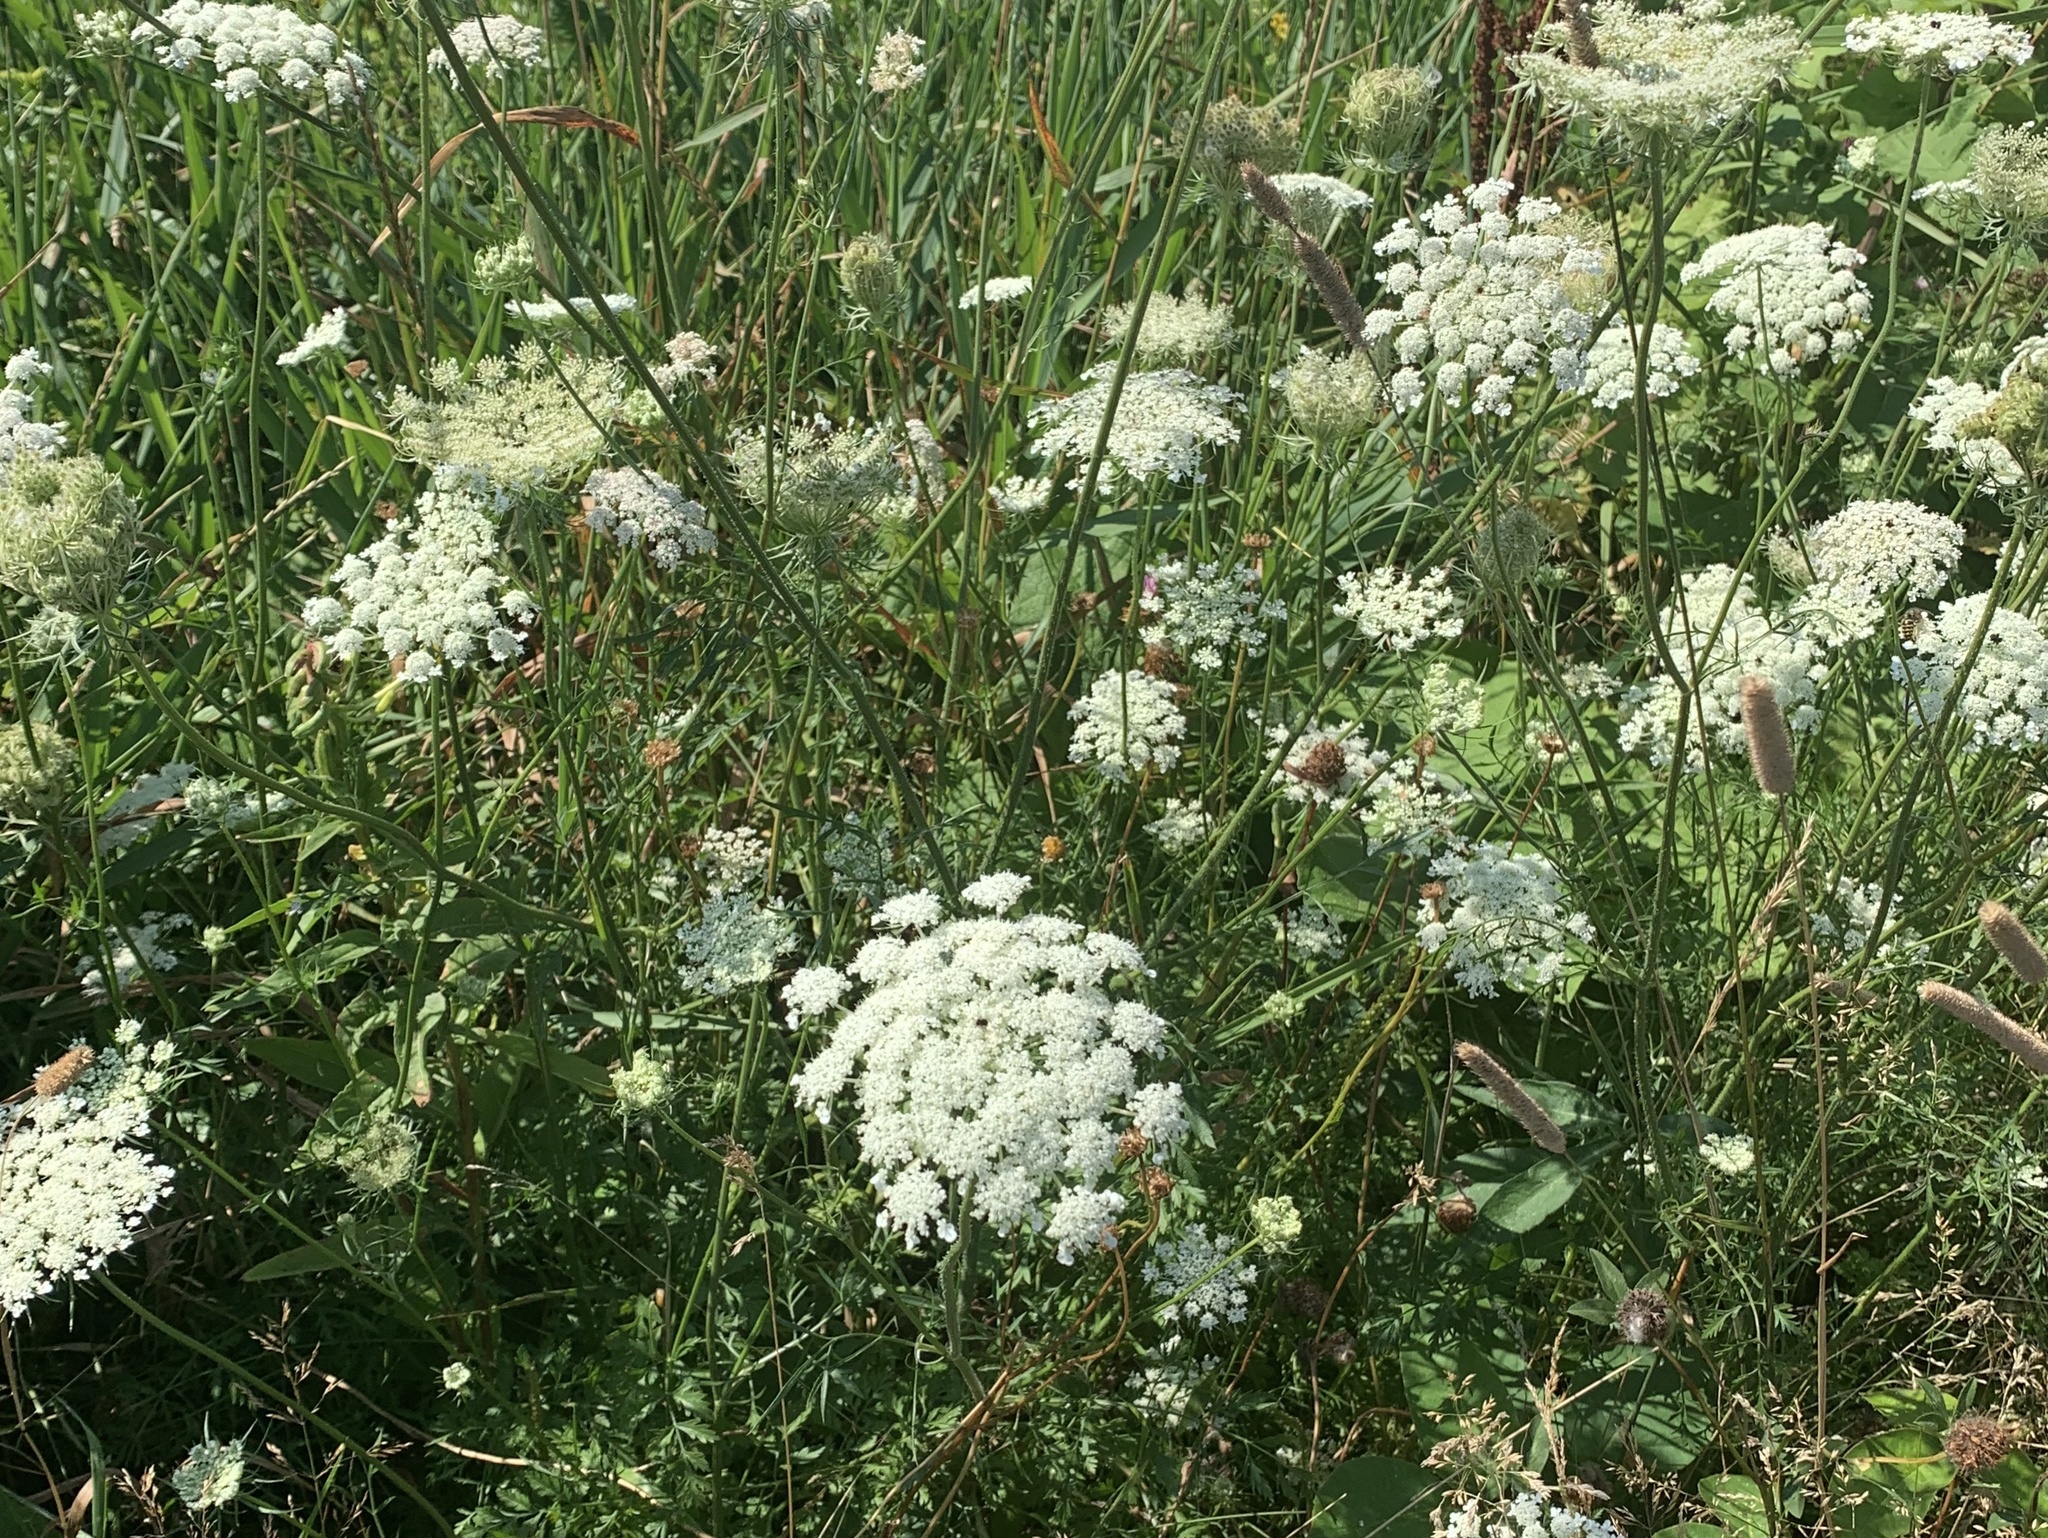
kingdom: Plantae
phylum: Tracheophyta
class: Magnoliopsida
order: Apiales
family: Apiaceae
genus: Daucus
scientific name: Daucus carota
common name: Wild carrot
